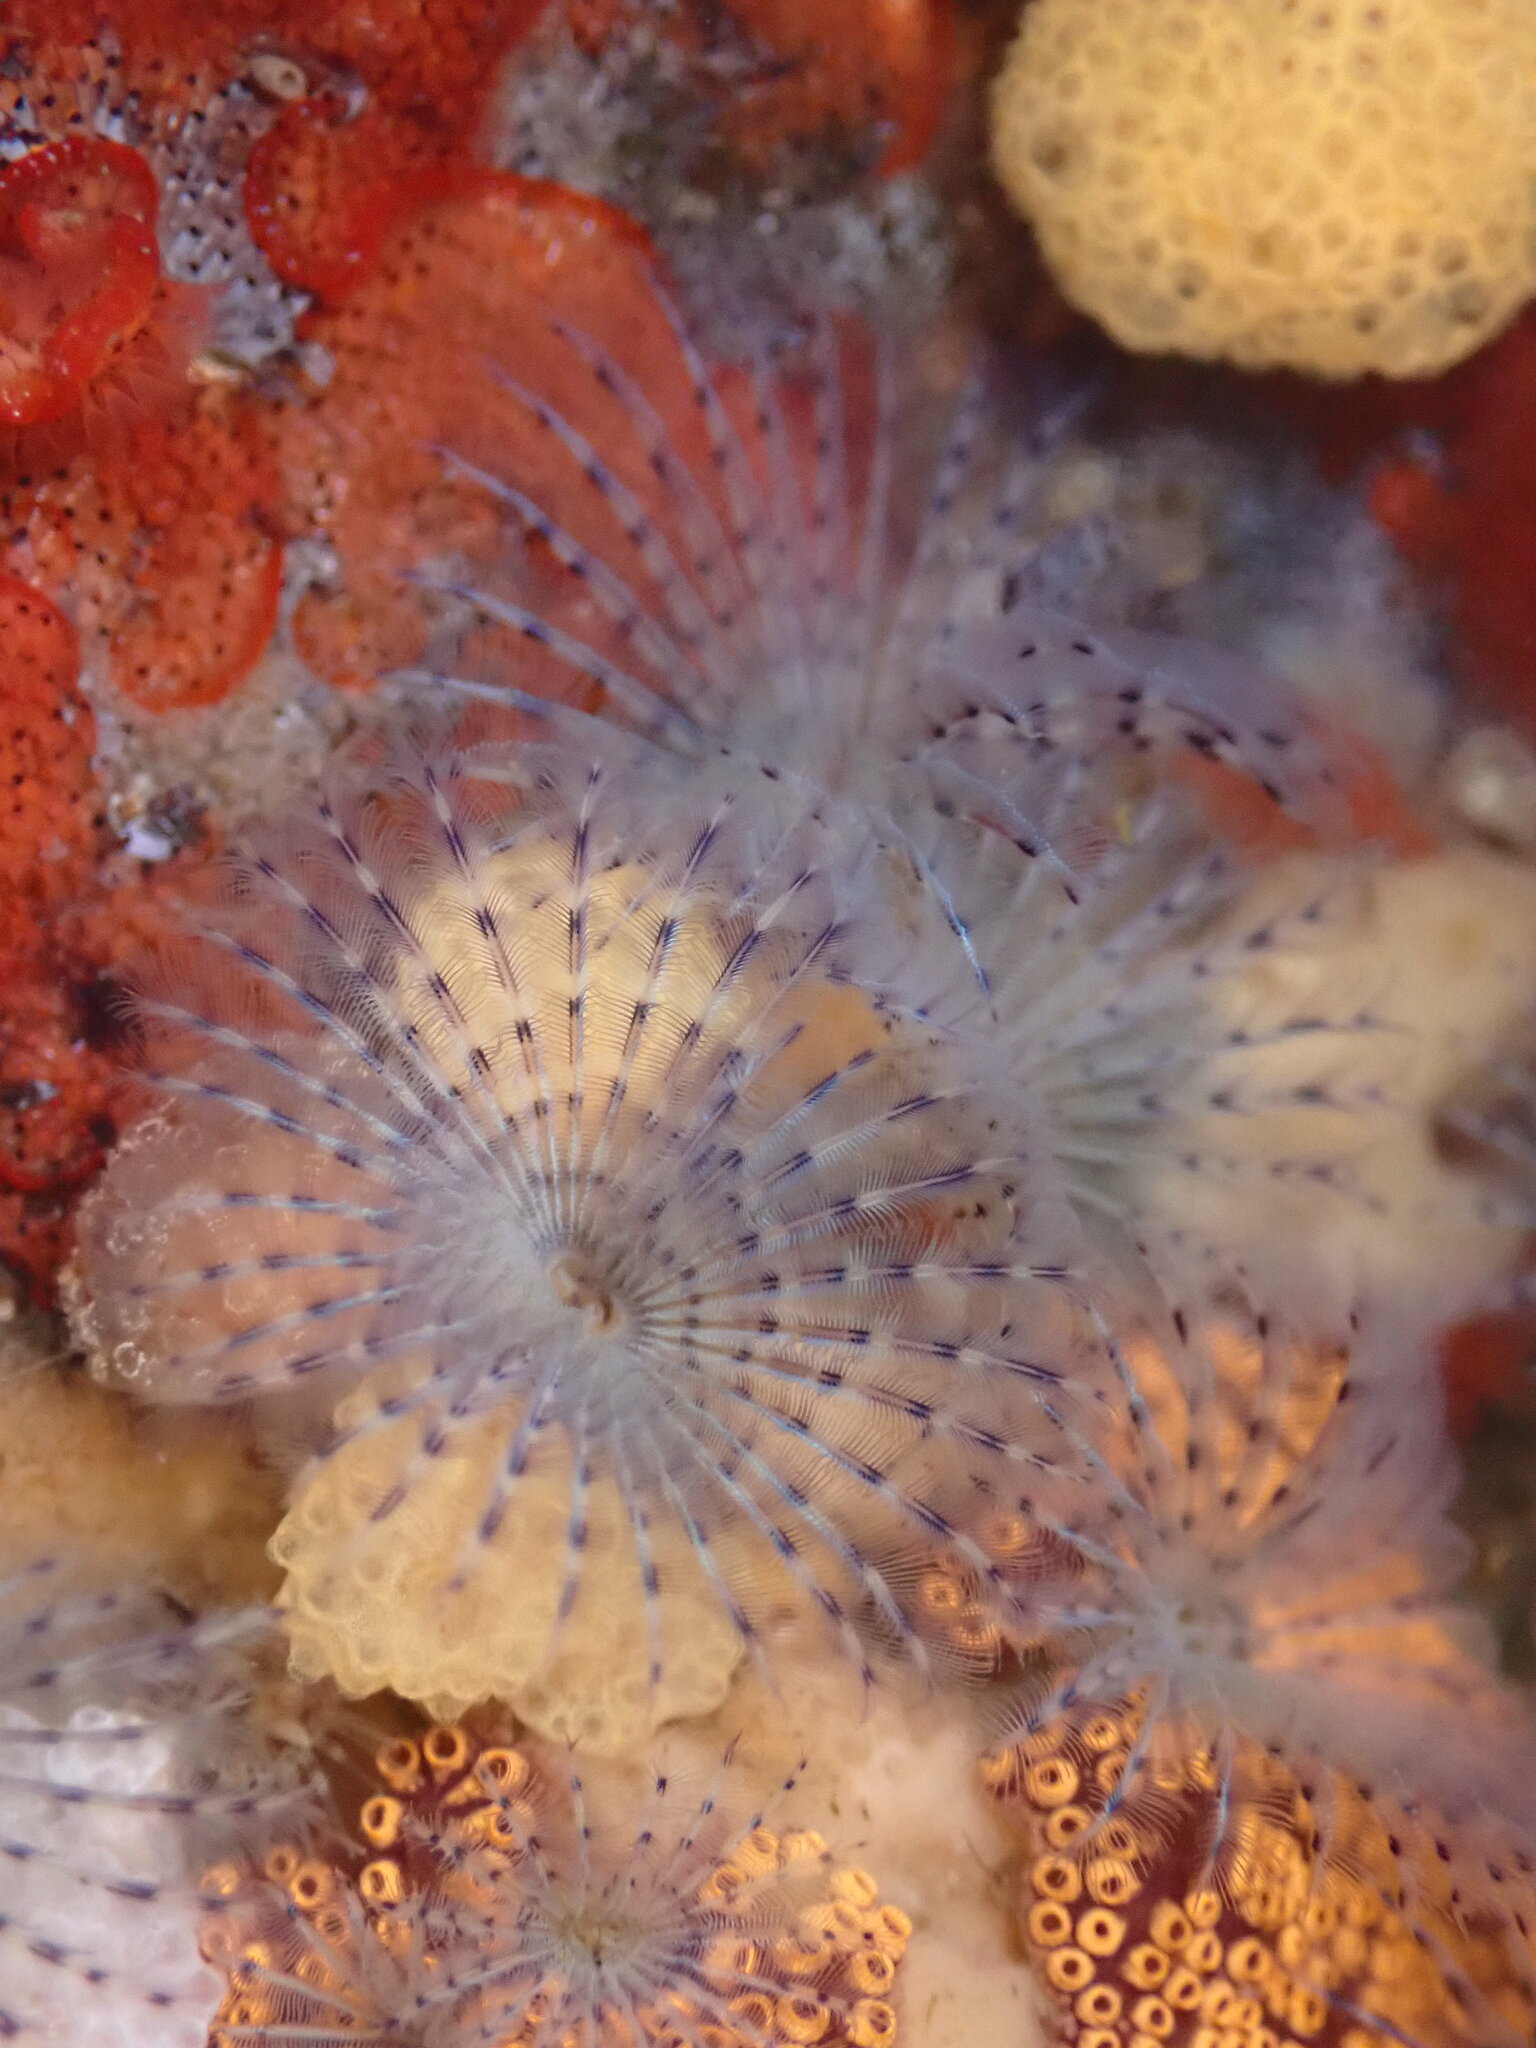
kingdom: Animalia
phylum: Annelida
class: Polychaeta
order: Sabellida
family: Sabellidae
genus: Bispira
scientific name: Bispira pacifica
